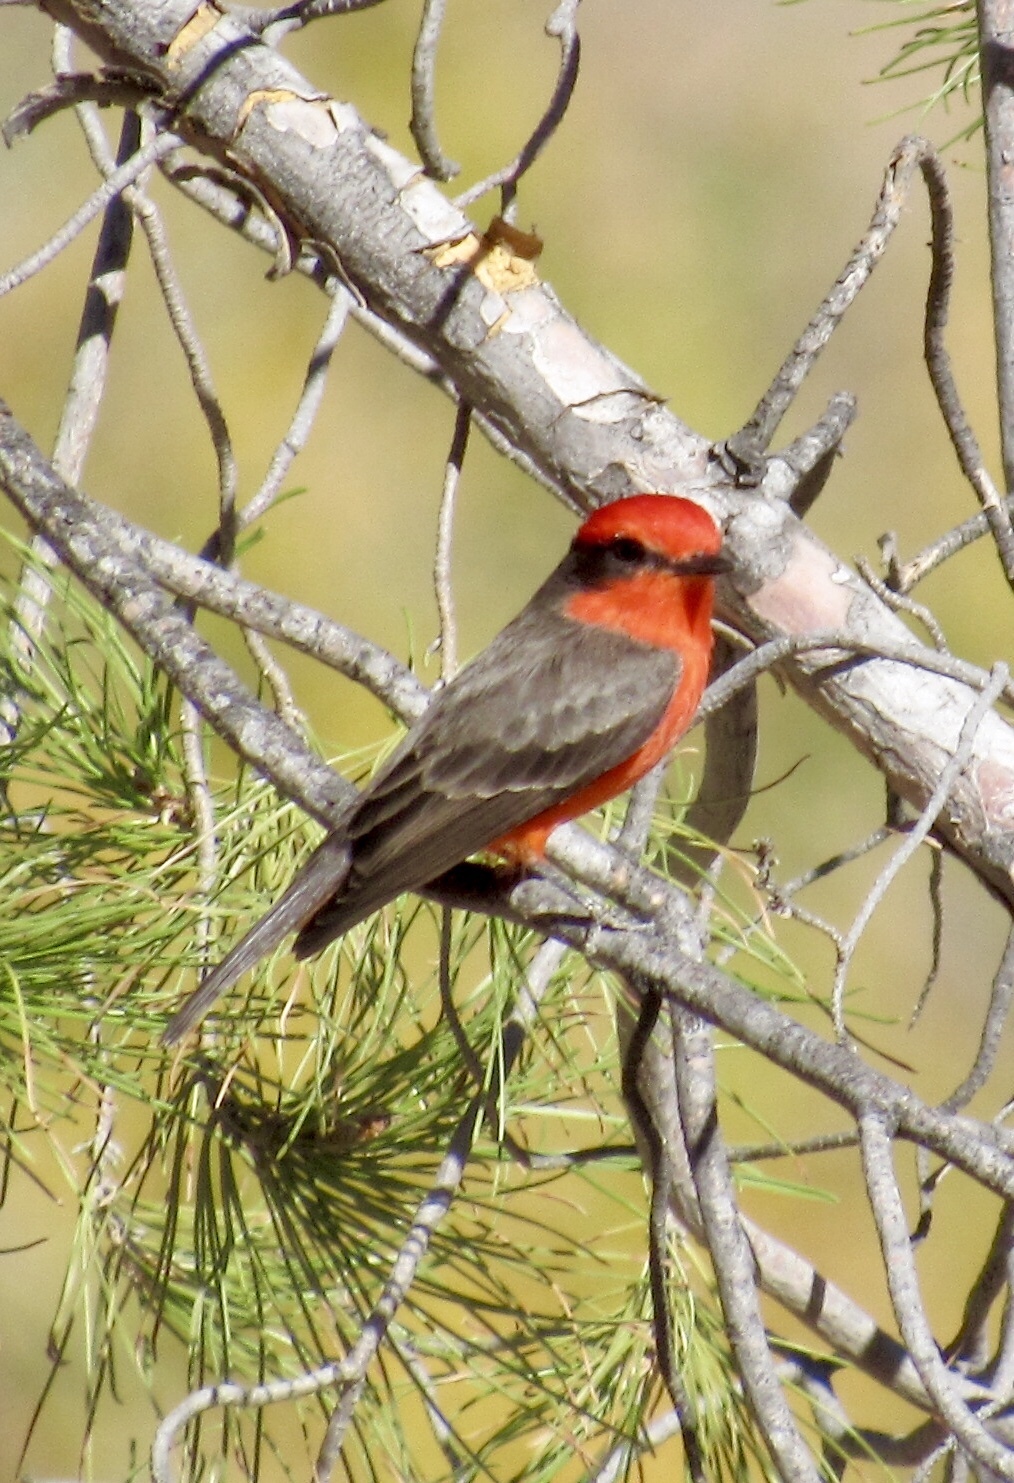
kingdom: Animalia
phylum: Chordata
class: Aves
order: Passeriformes
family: Tyrannidae
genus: Pyrocephalus
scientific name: Pyrocephalus rubinus
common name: Vermilion flycatcher
